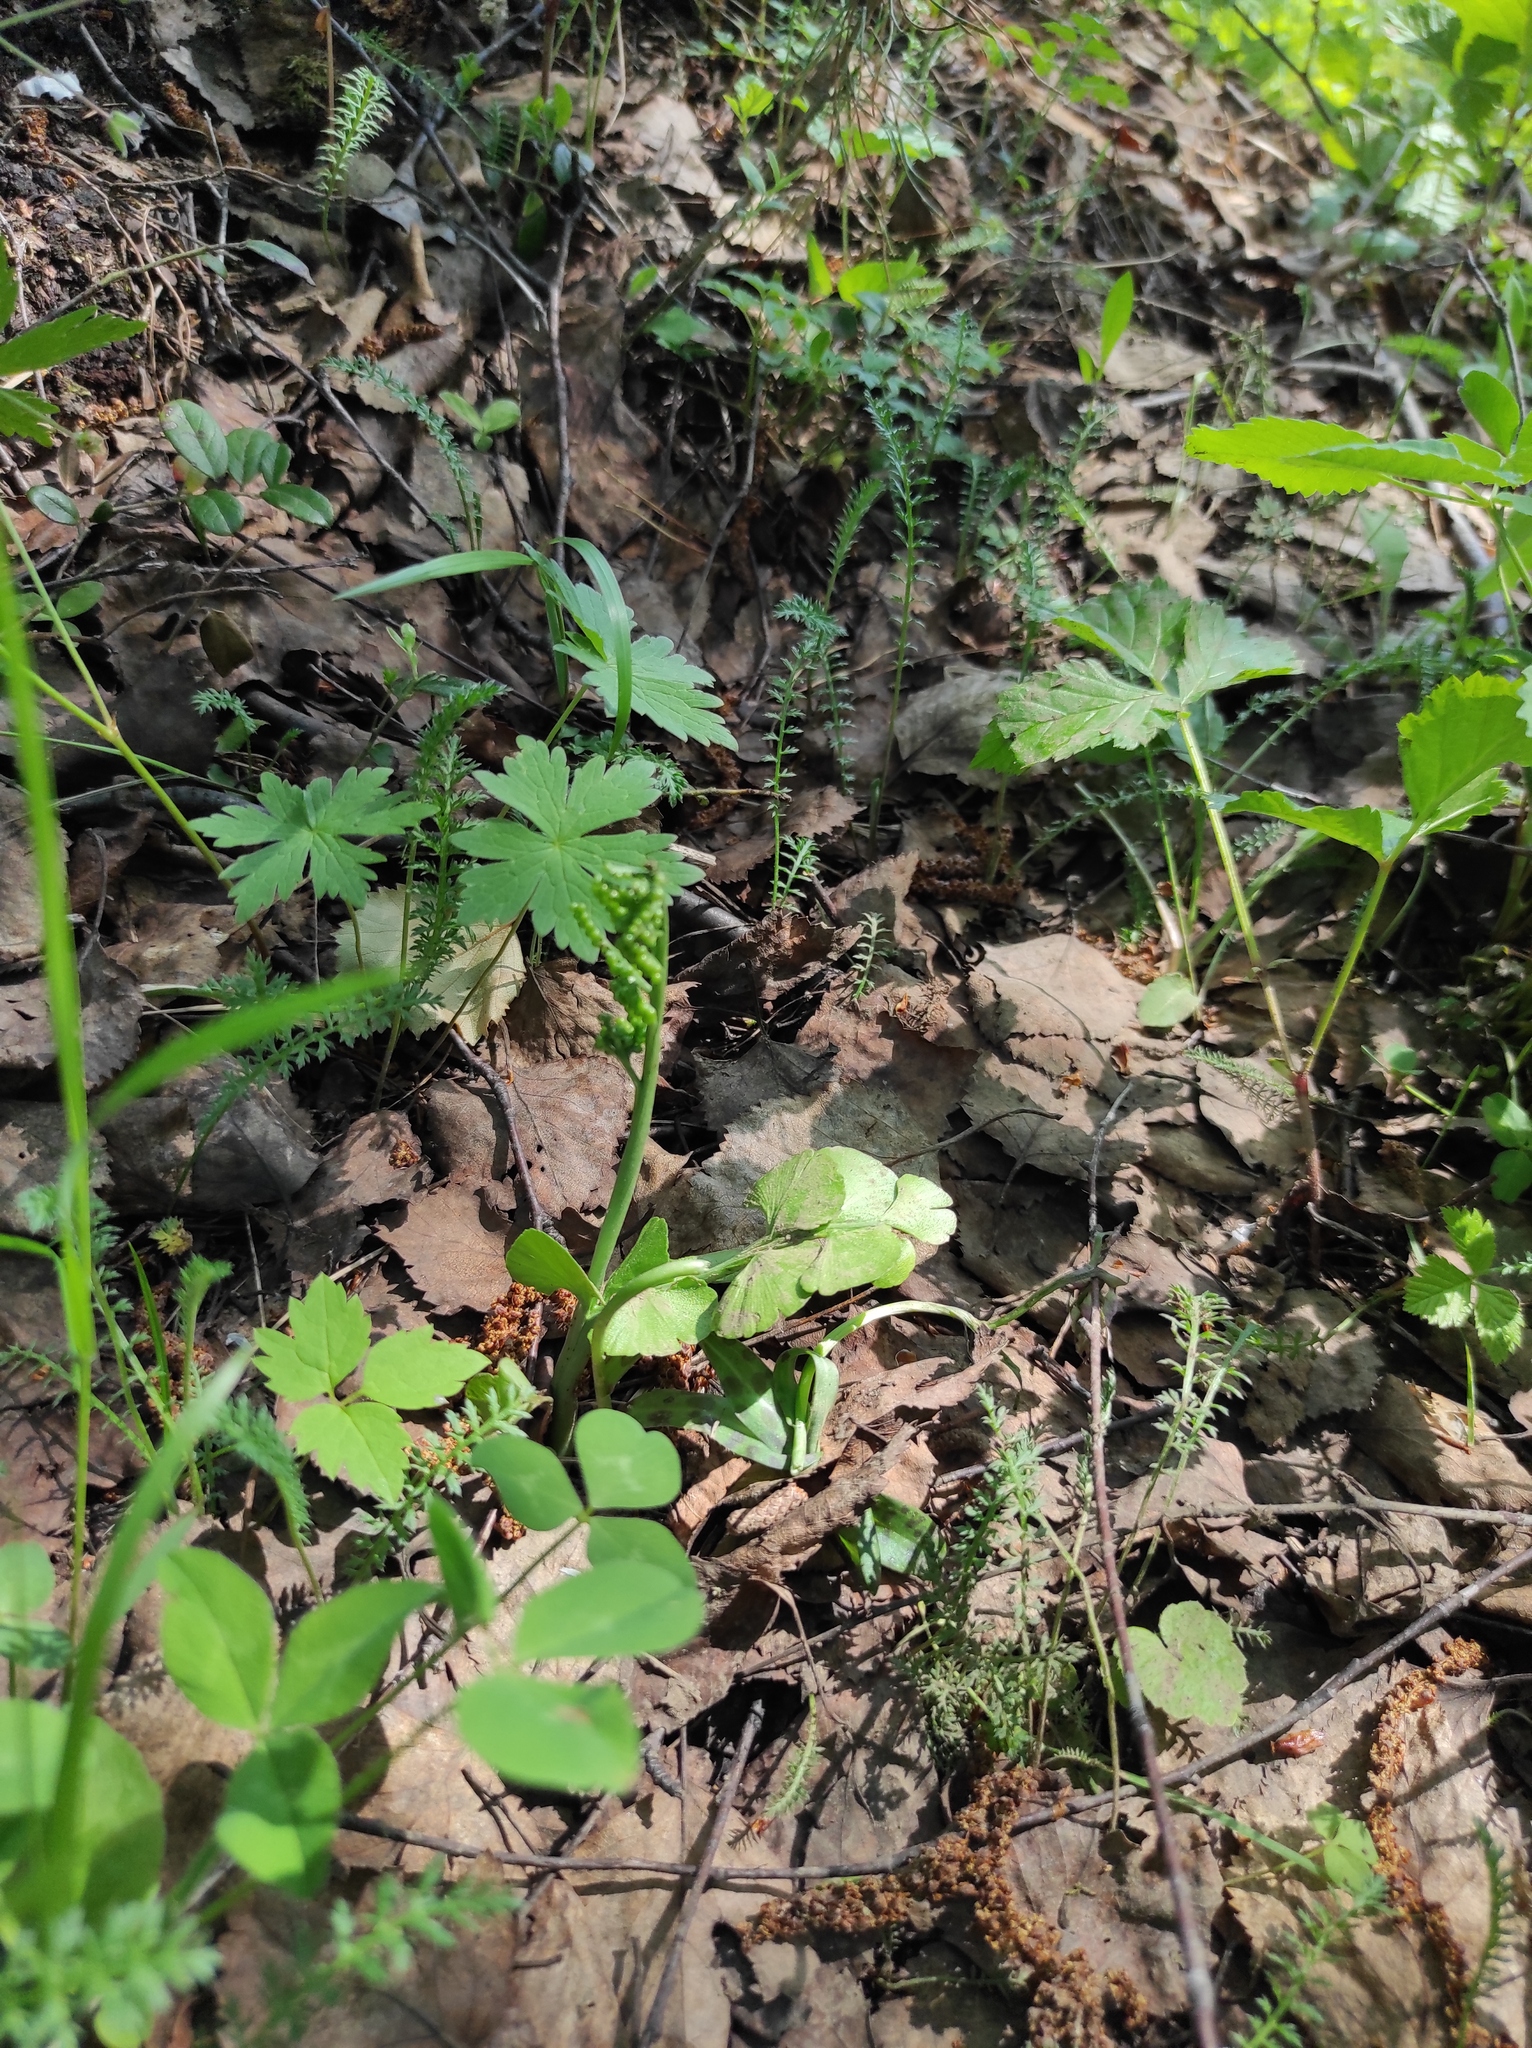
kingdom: Plantae
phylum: Tracheophyta
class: Polypodiopsida
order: Ophioglossales
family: Ophioglossaceae
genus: Botrychium
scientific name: Botrychium lunaria
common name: Moonwort
